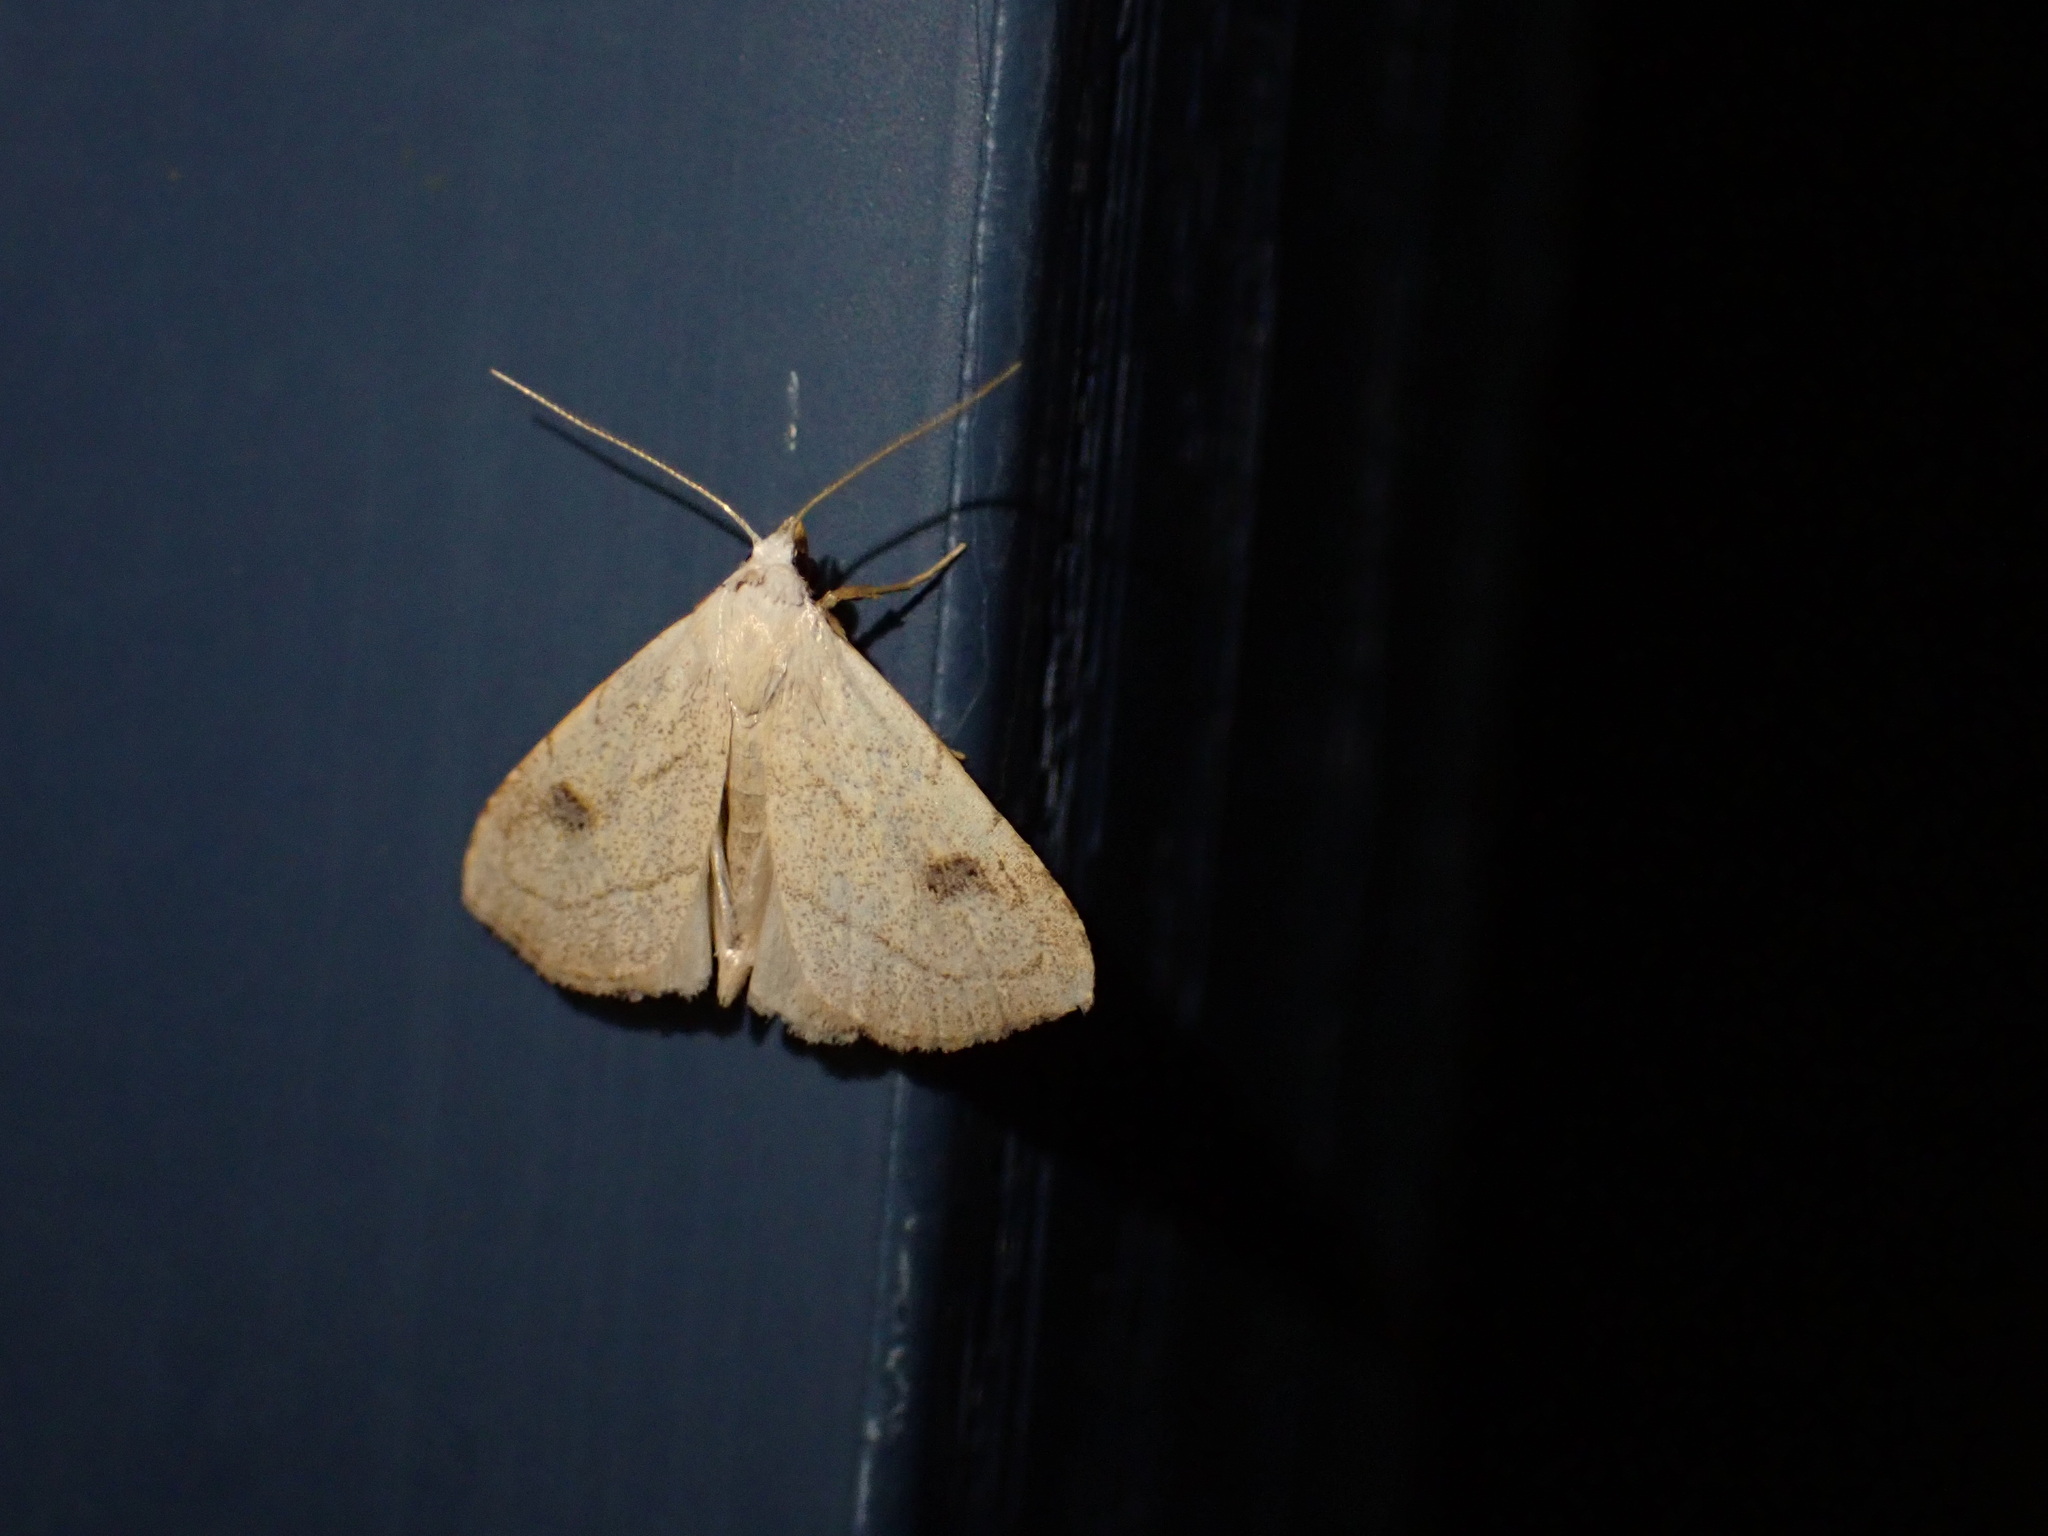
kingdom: Animalia
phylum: Arthropoda
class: Insecta
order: Lepidoptera
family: Erebidae
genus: Rivula
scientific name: Rivula propinqualis
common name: Spotted grass moth
